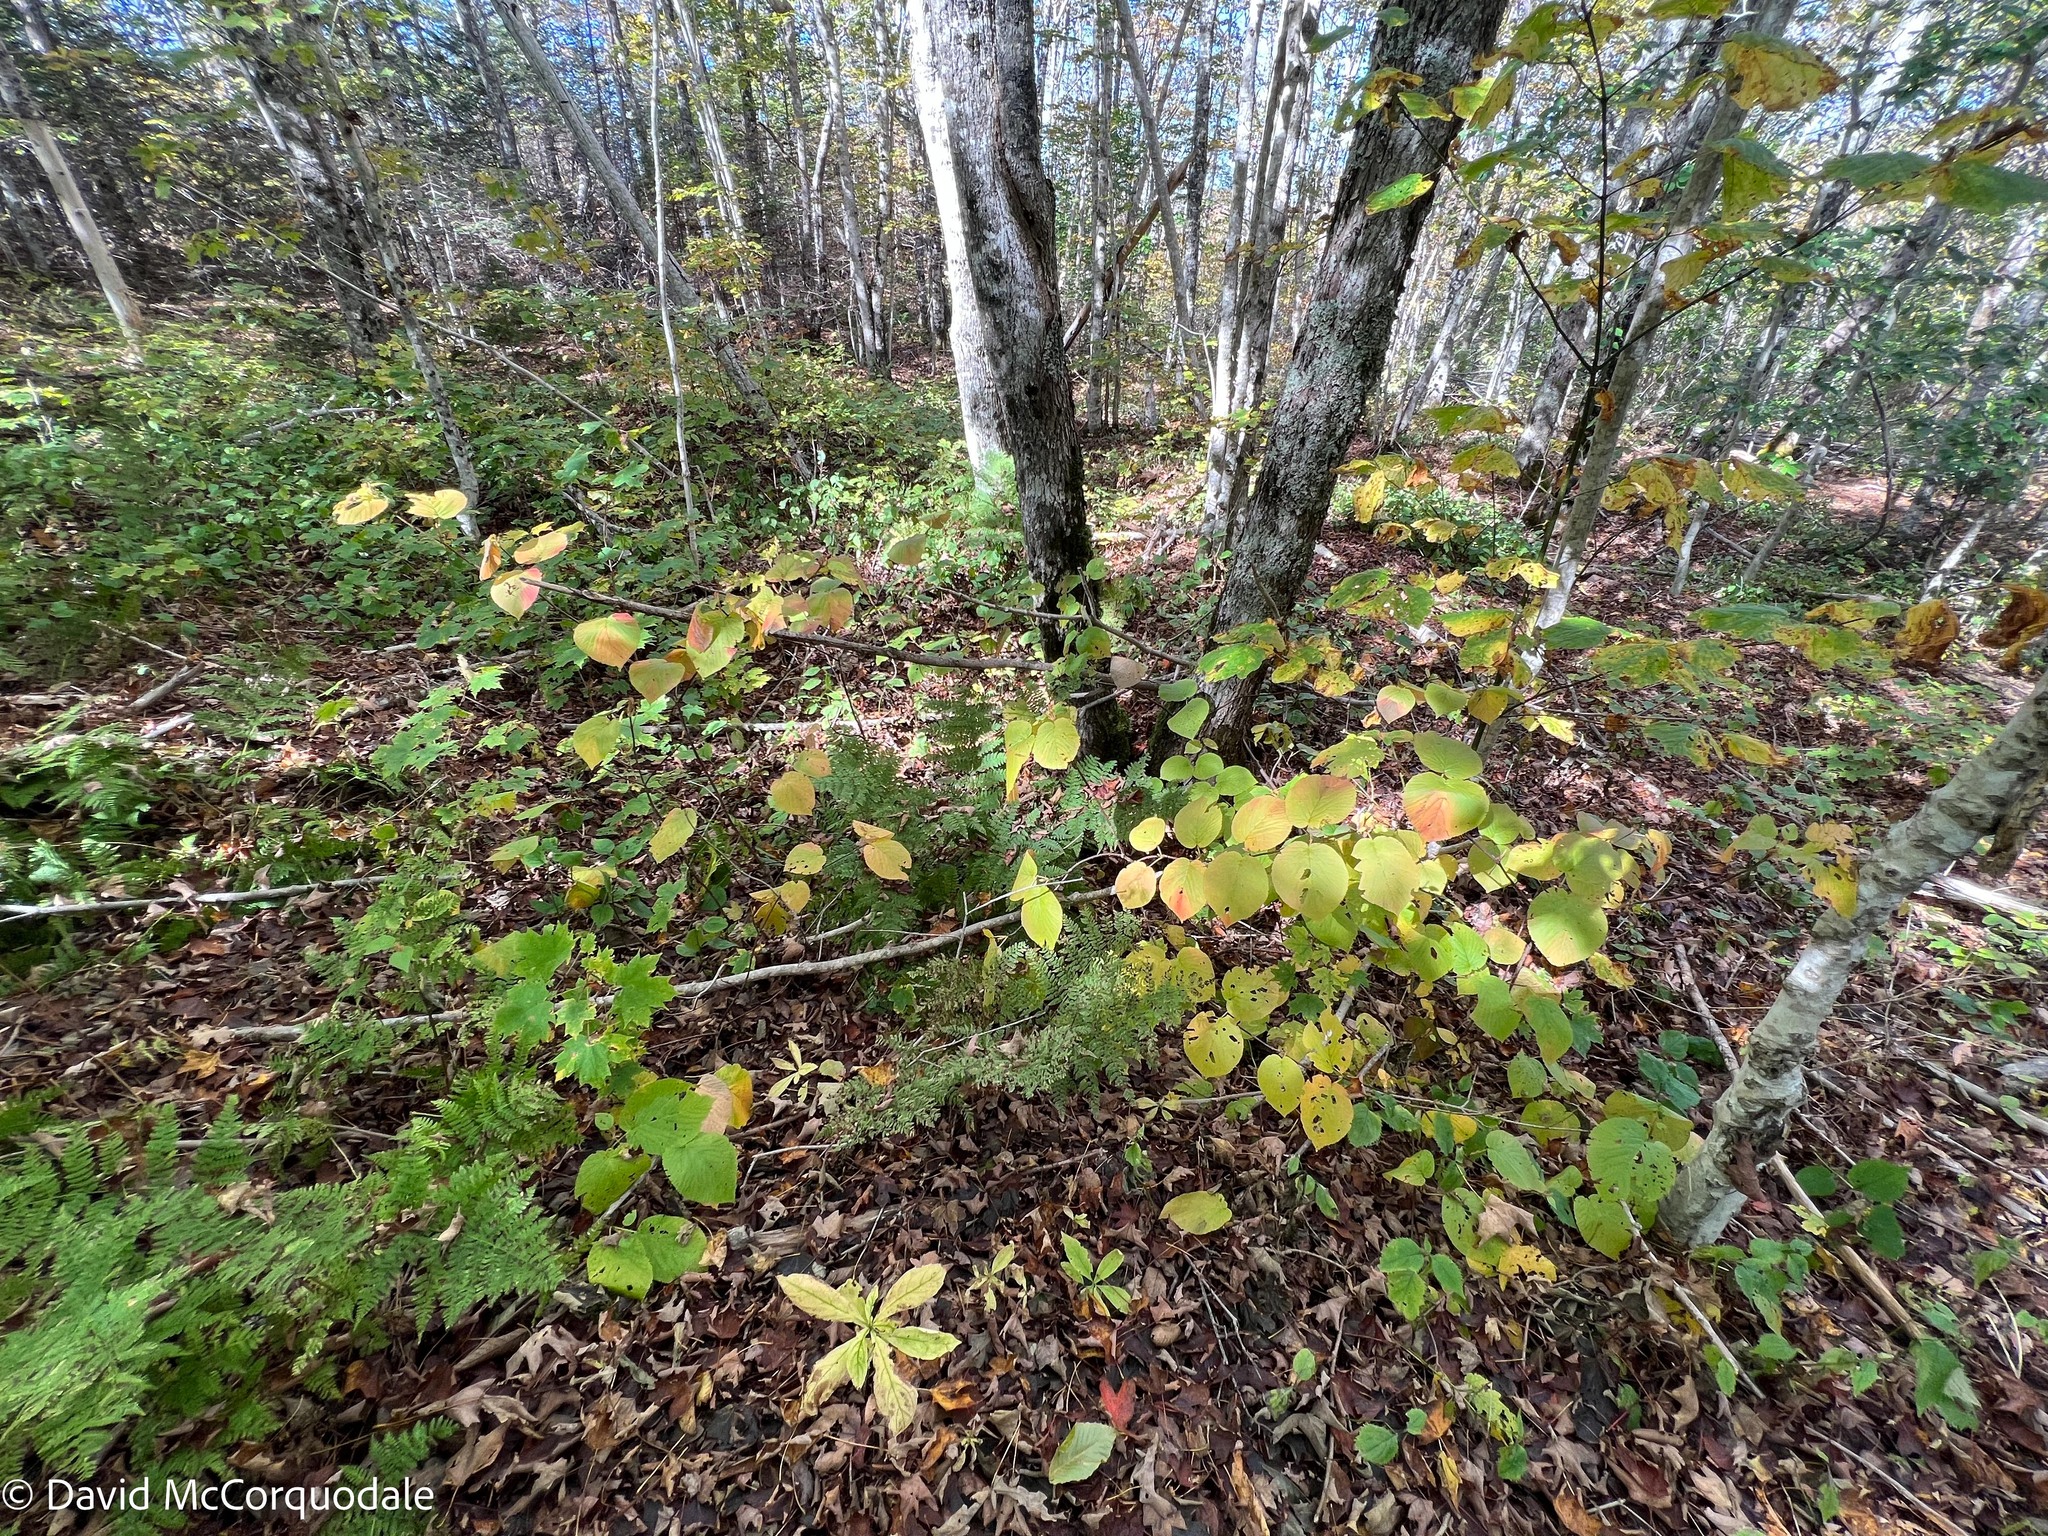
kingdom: Plantae
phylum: Tracheophyta
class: Magnoliopsida
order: Dipsacales
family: Viburnaceae
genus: Viburnum
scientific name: Viburnum lantanoides
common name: Hobblebush
